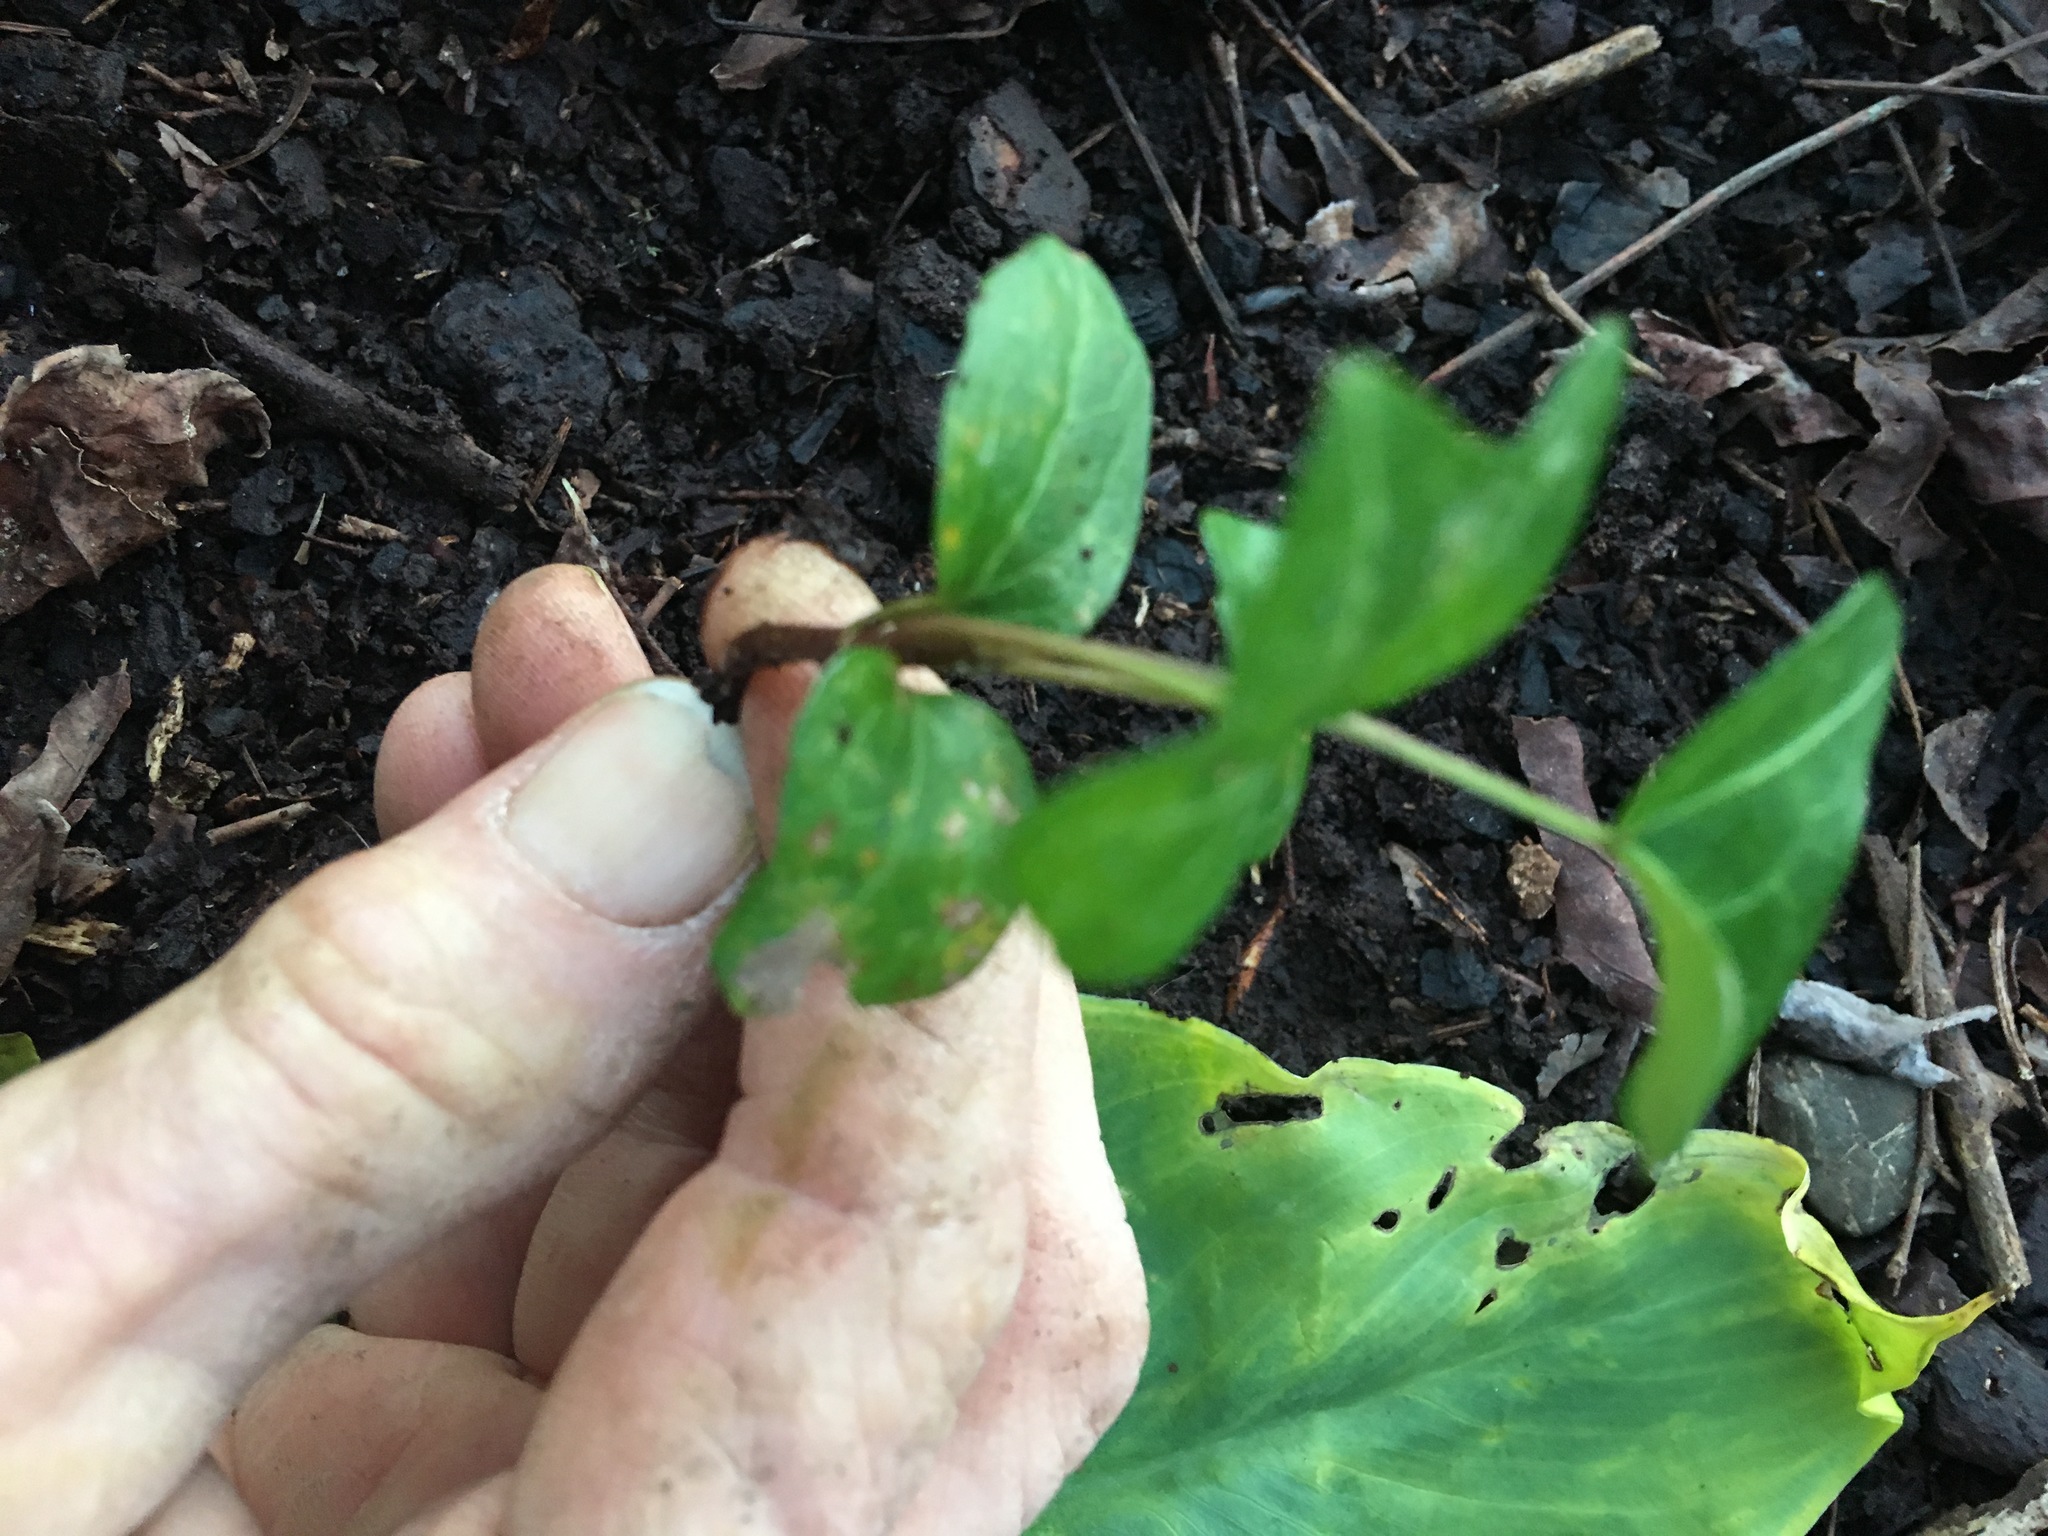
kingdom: Plantae
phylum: Tracheophyta
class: Magnoliopsida
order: Apiales
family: Araliaceae
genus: Hedera
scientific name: Hedera helix
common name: Ivy
